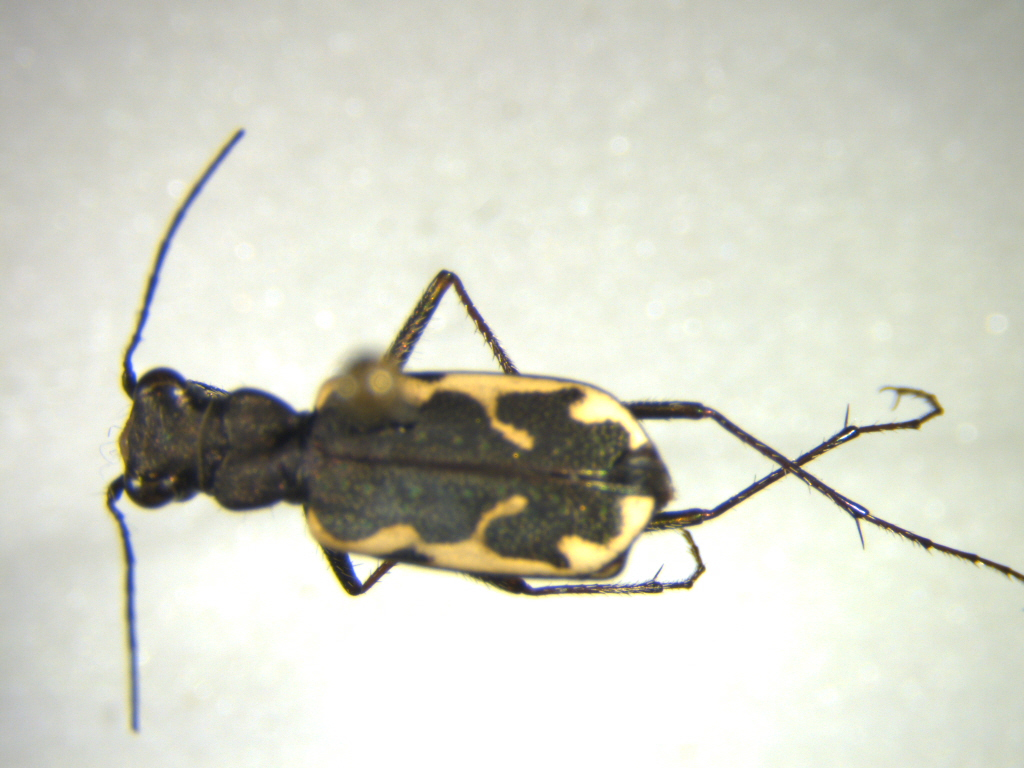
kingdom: Animalia
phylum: Arthropoda
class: Insecta
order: Coleoptera
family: Carabidae
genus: Neocicindela
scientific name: Neocicindela tuberculata
